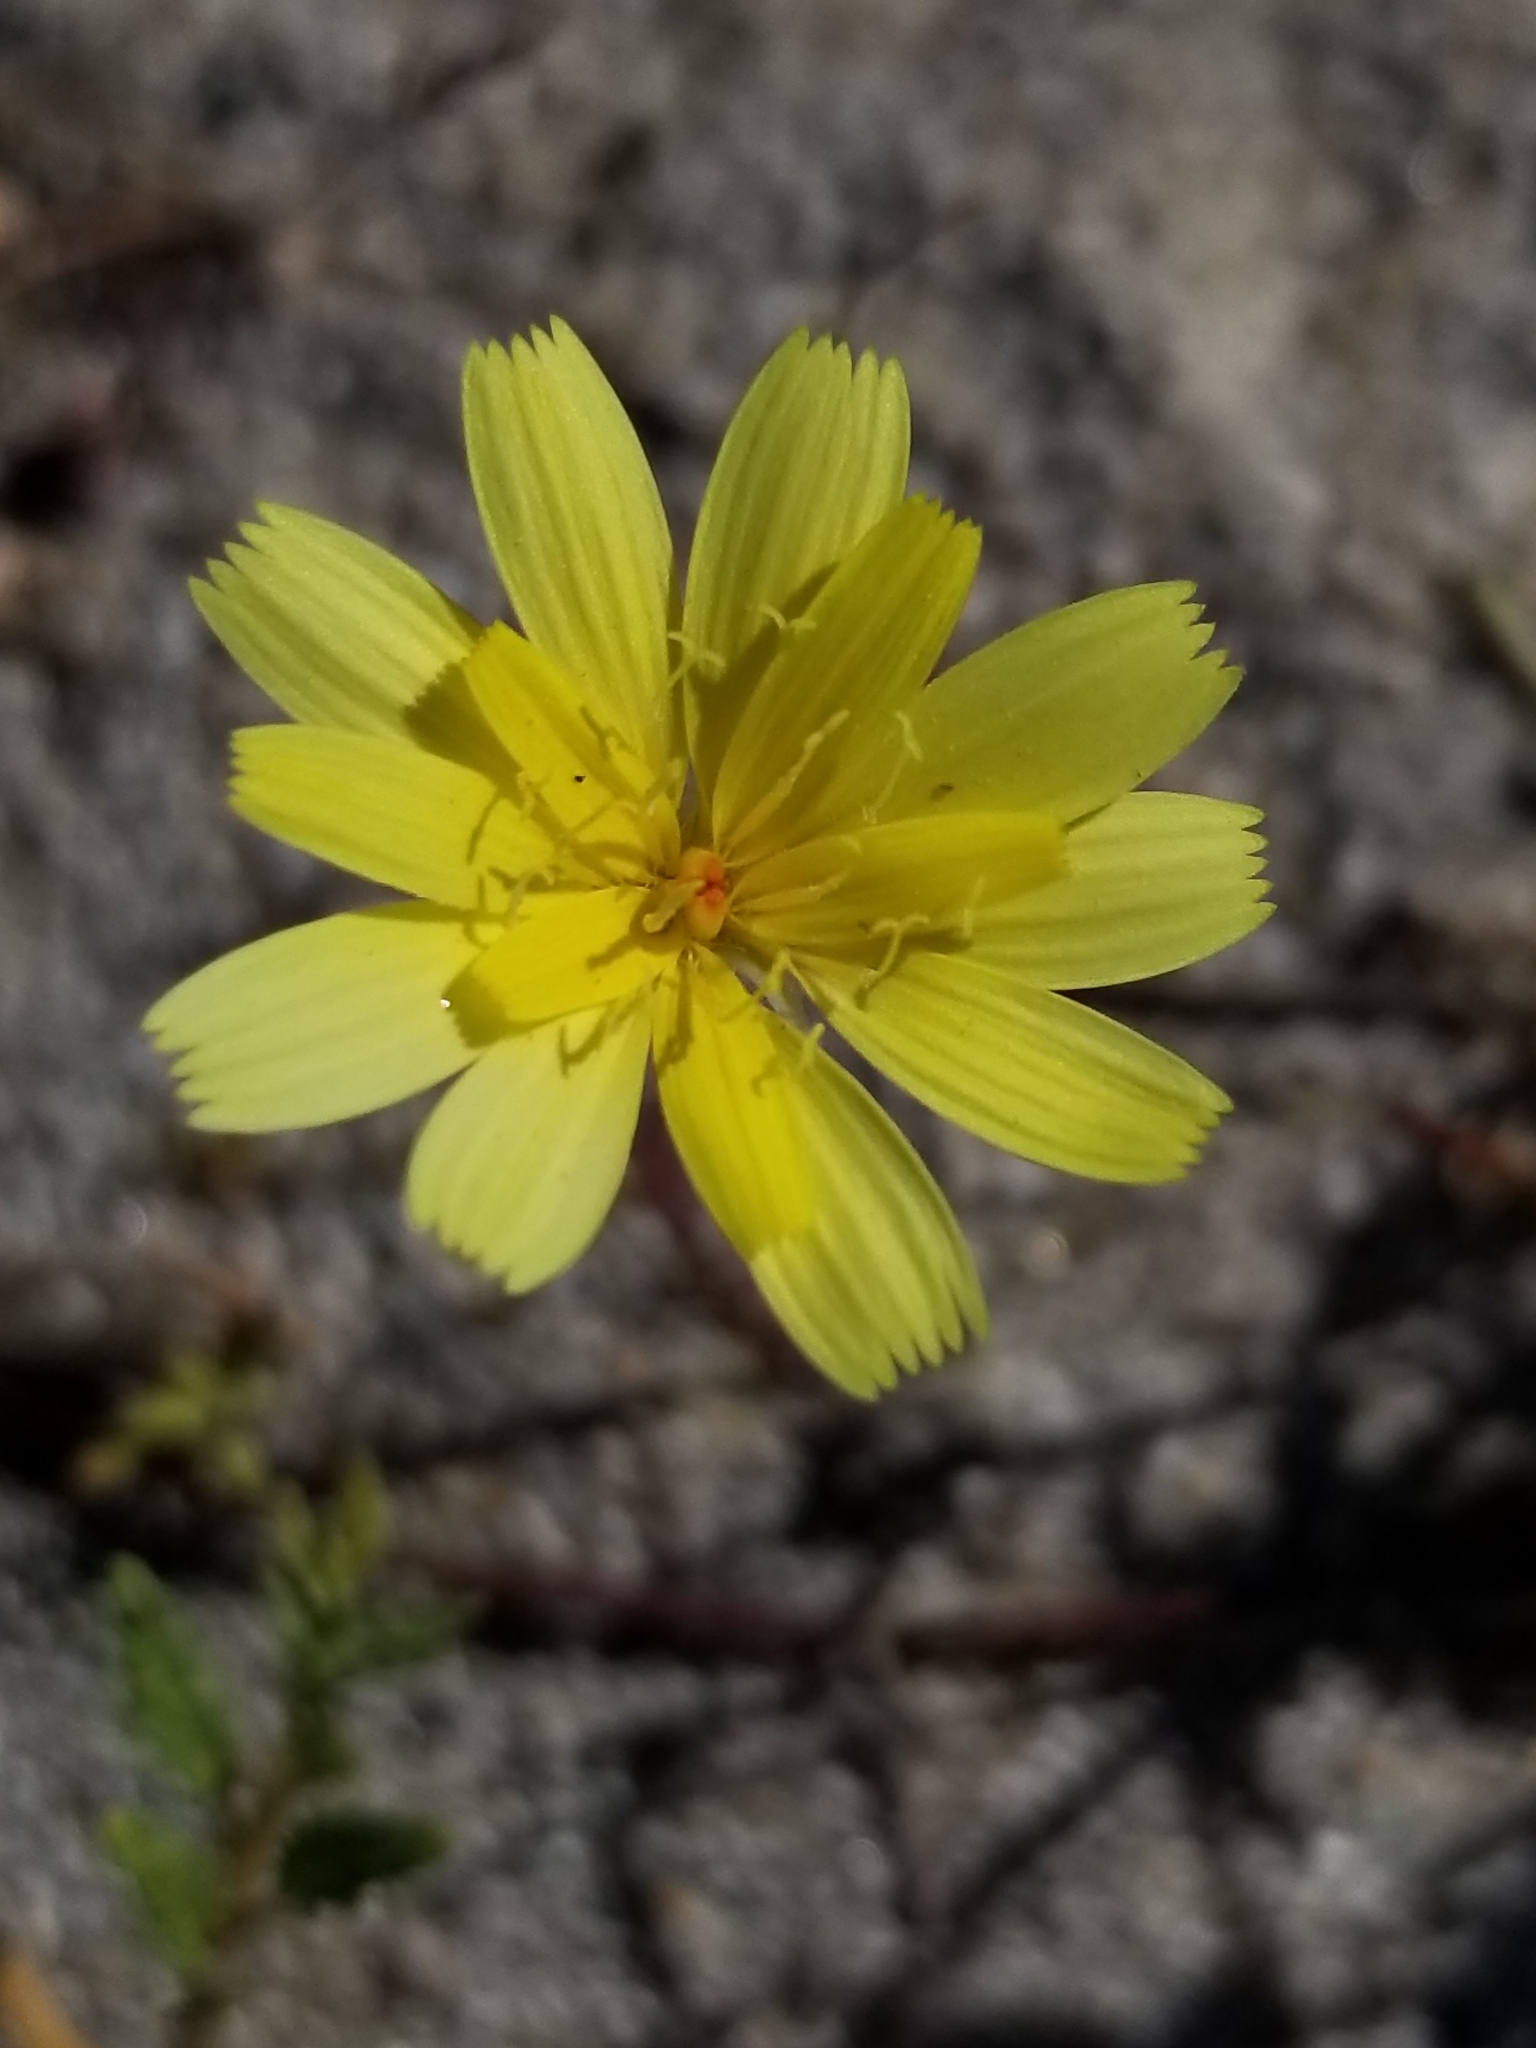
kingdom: Plantae
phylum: Tracheophyta
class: Magnoliopsida
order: Asterales
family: Asteraceae
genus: Malacothrix
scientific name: Malacothrix glabrata
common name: Smooth desert-dandelion
